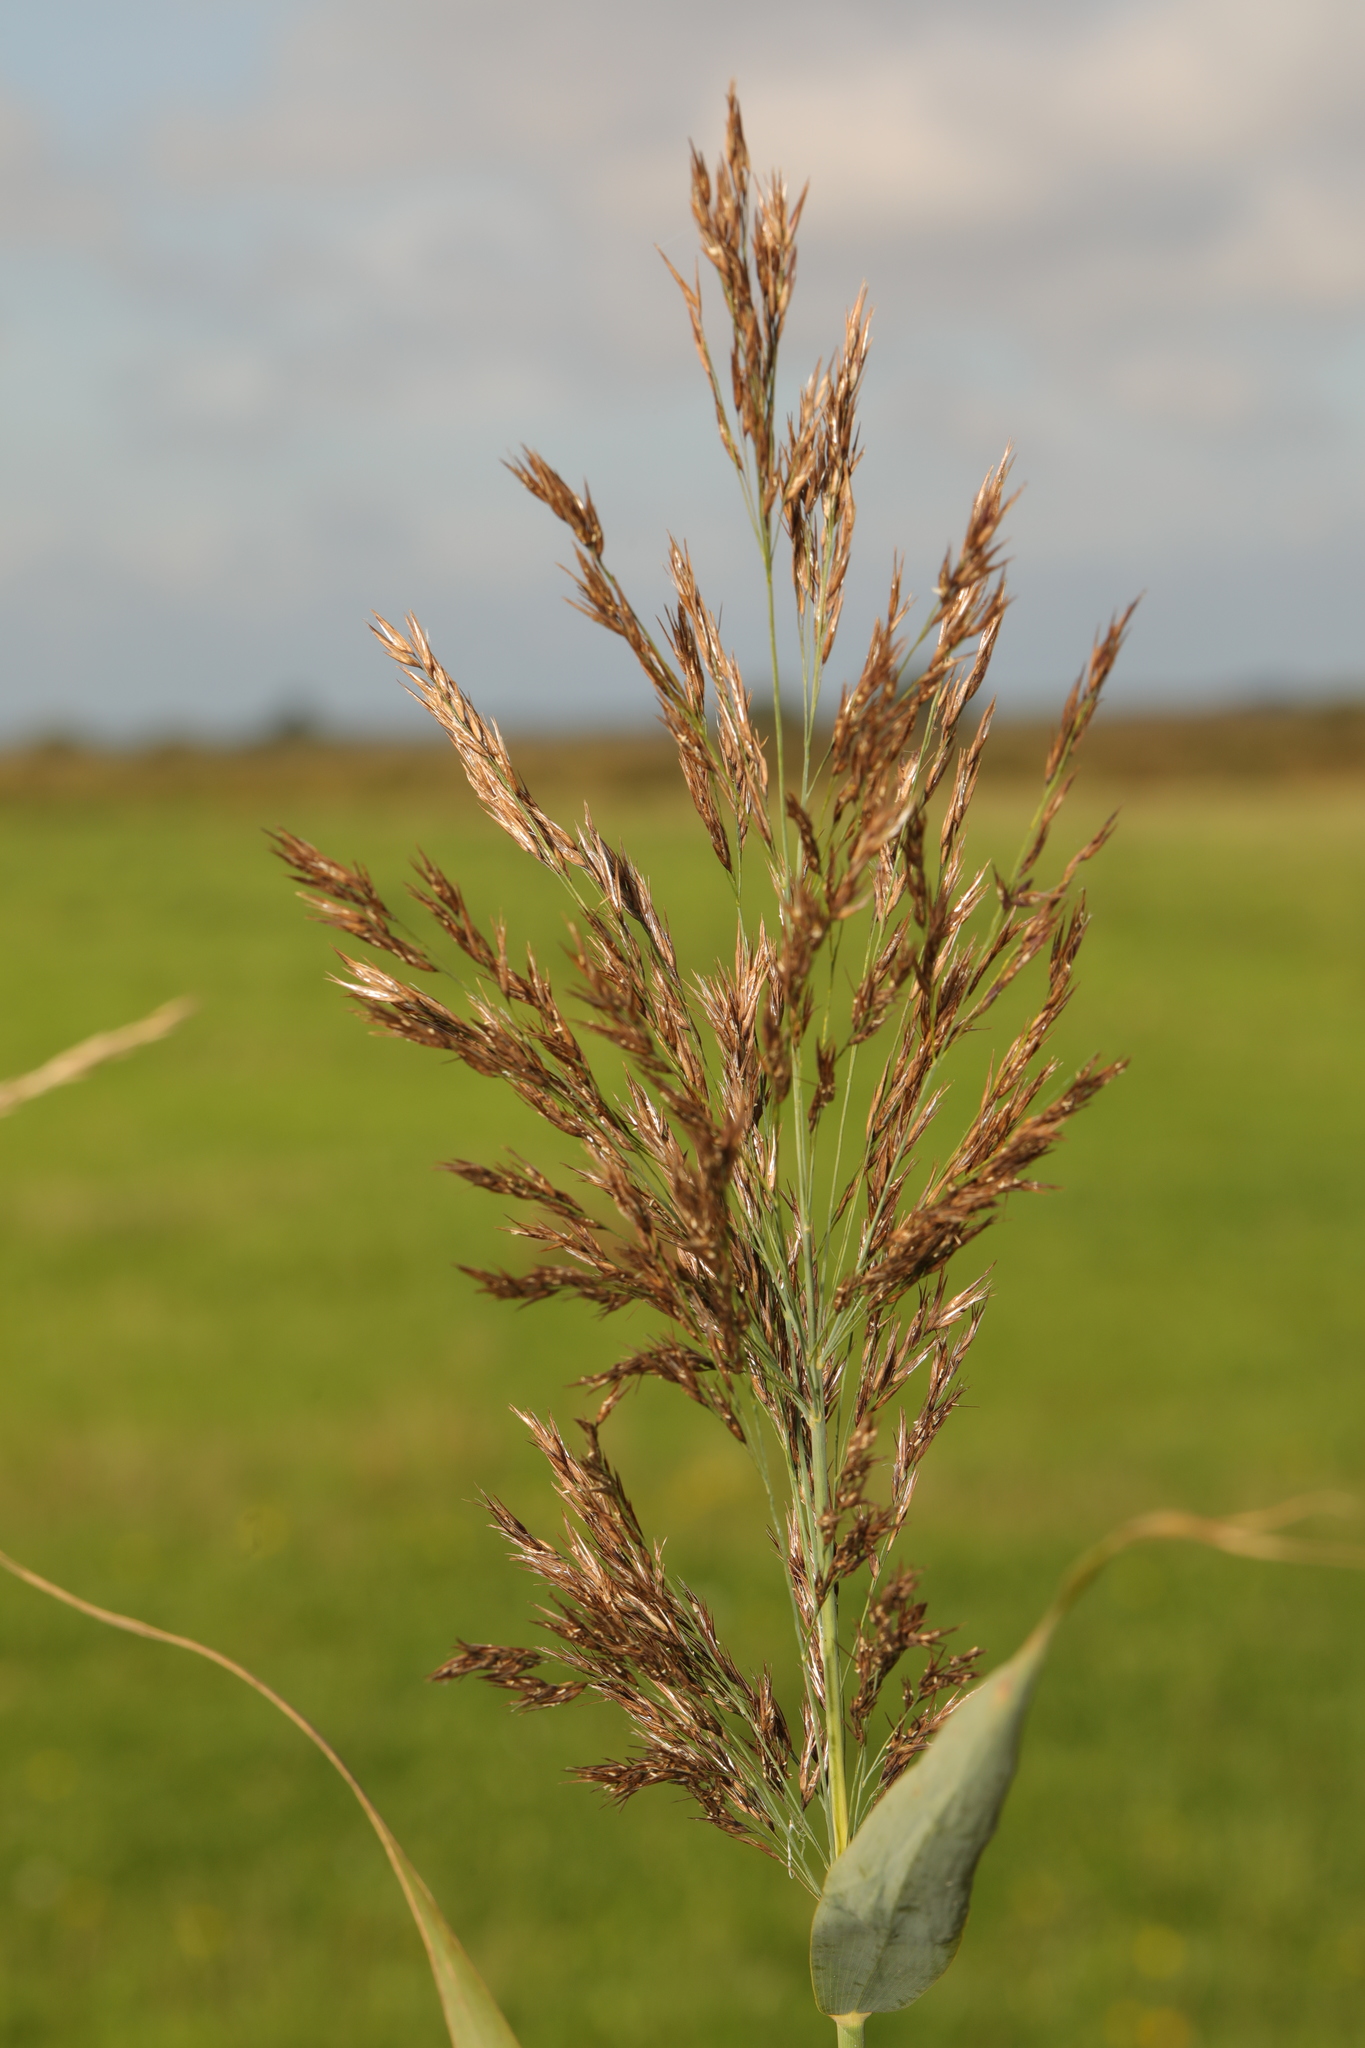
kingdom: Plantae
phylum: Tracheophyta
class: Liliopsida
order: Poales
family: Poaceae
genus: Phragmites
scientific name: Phragmites australis
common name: Common reed
